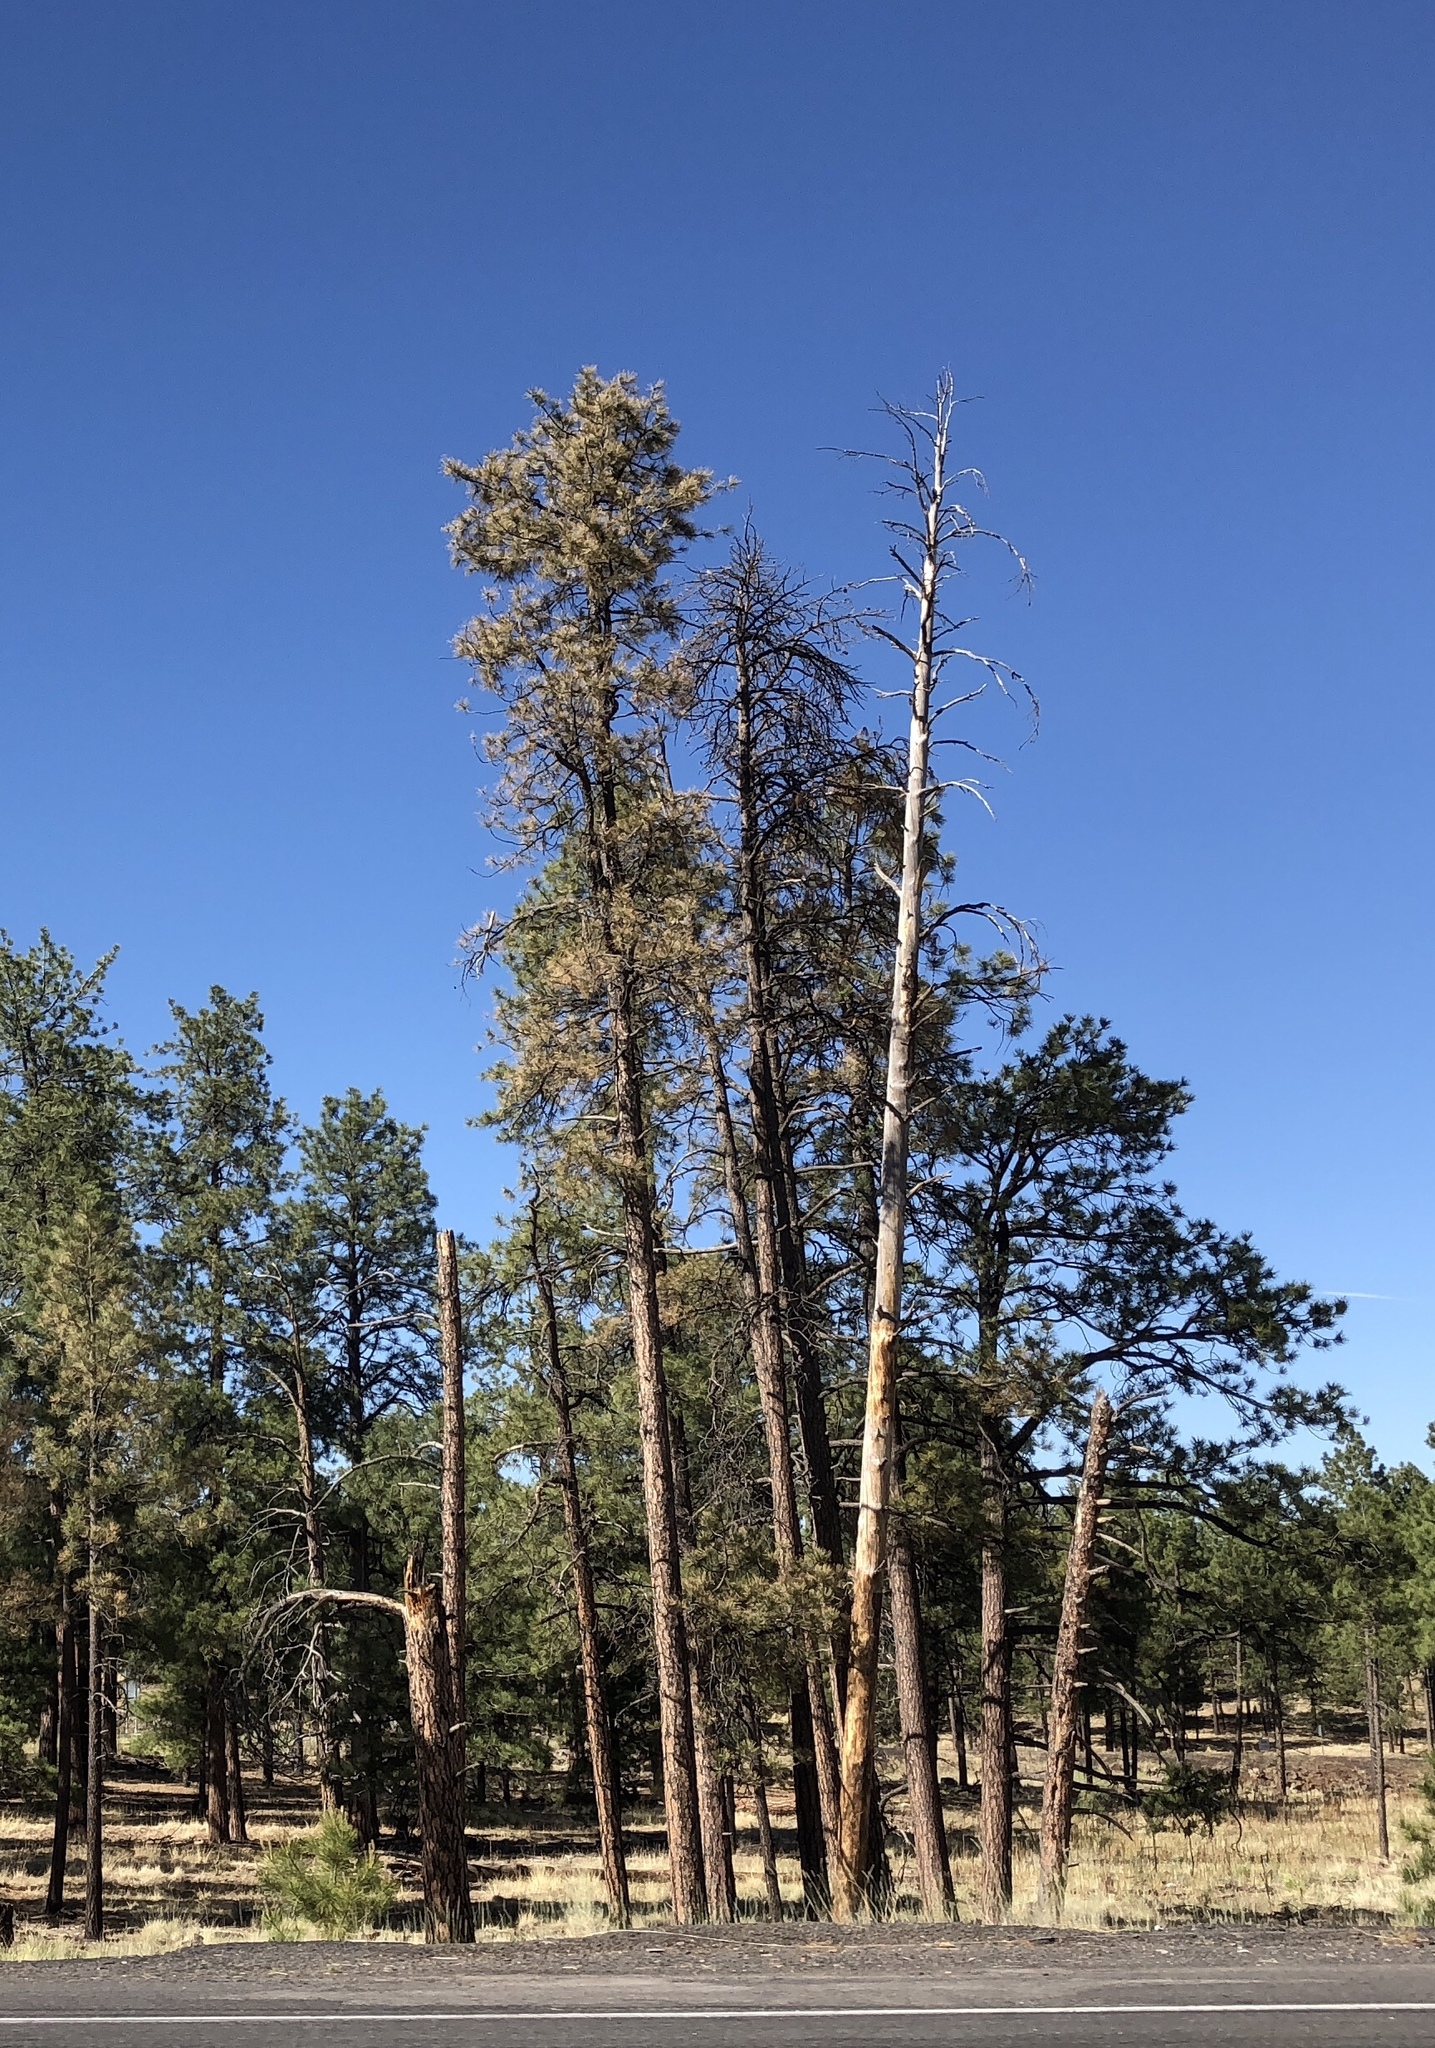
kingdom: Plantae
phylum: Tracheophyta
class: Pinopsida
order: Pinales
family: Pinaceae
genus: Pinus
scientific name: Pinus ponderosa
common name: Western yellow-pine
